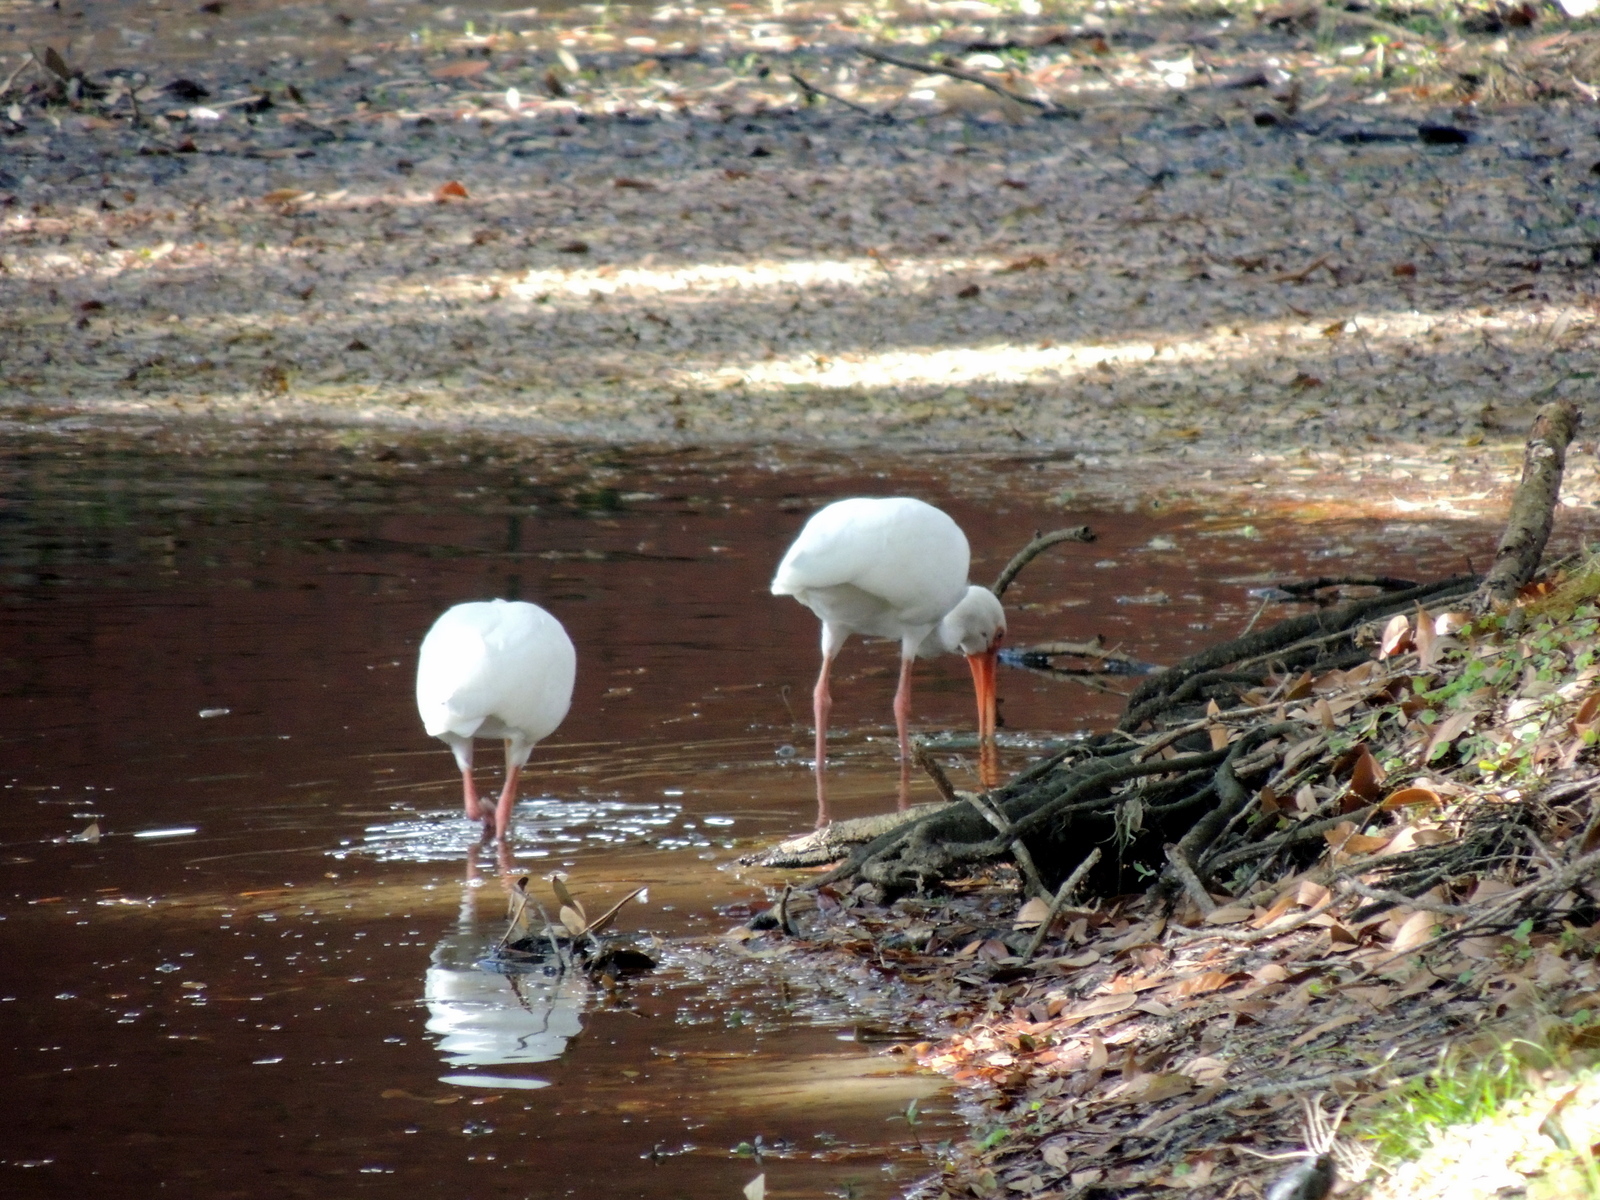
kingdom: Animalia
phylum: Chordata
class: Aves
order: Pelecaniformes
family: Threskiornithidae
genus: Eudocimus
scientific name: Eudocimus albus
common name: White ibis
